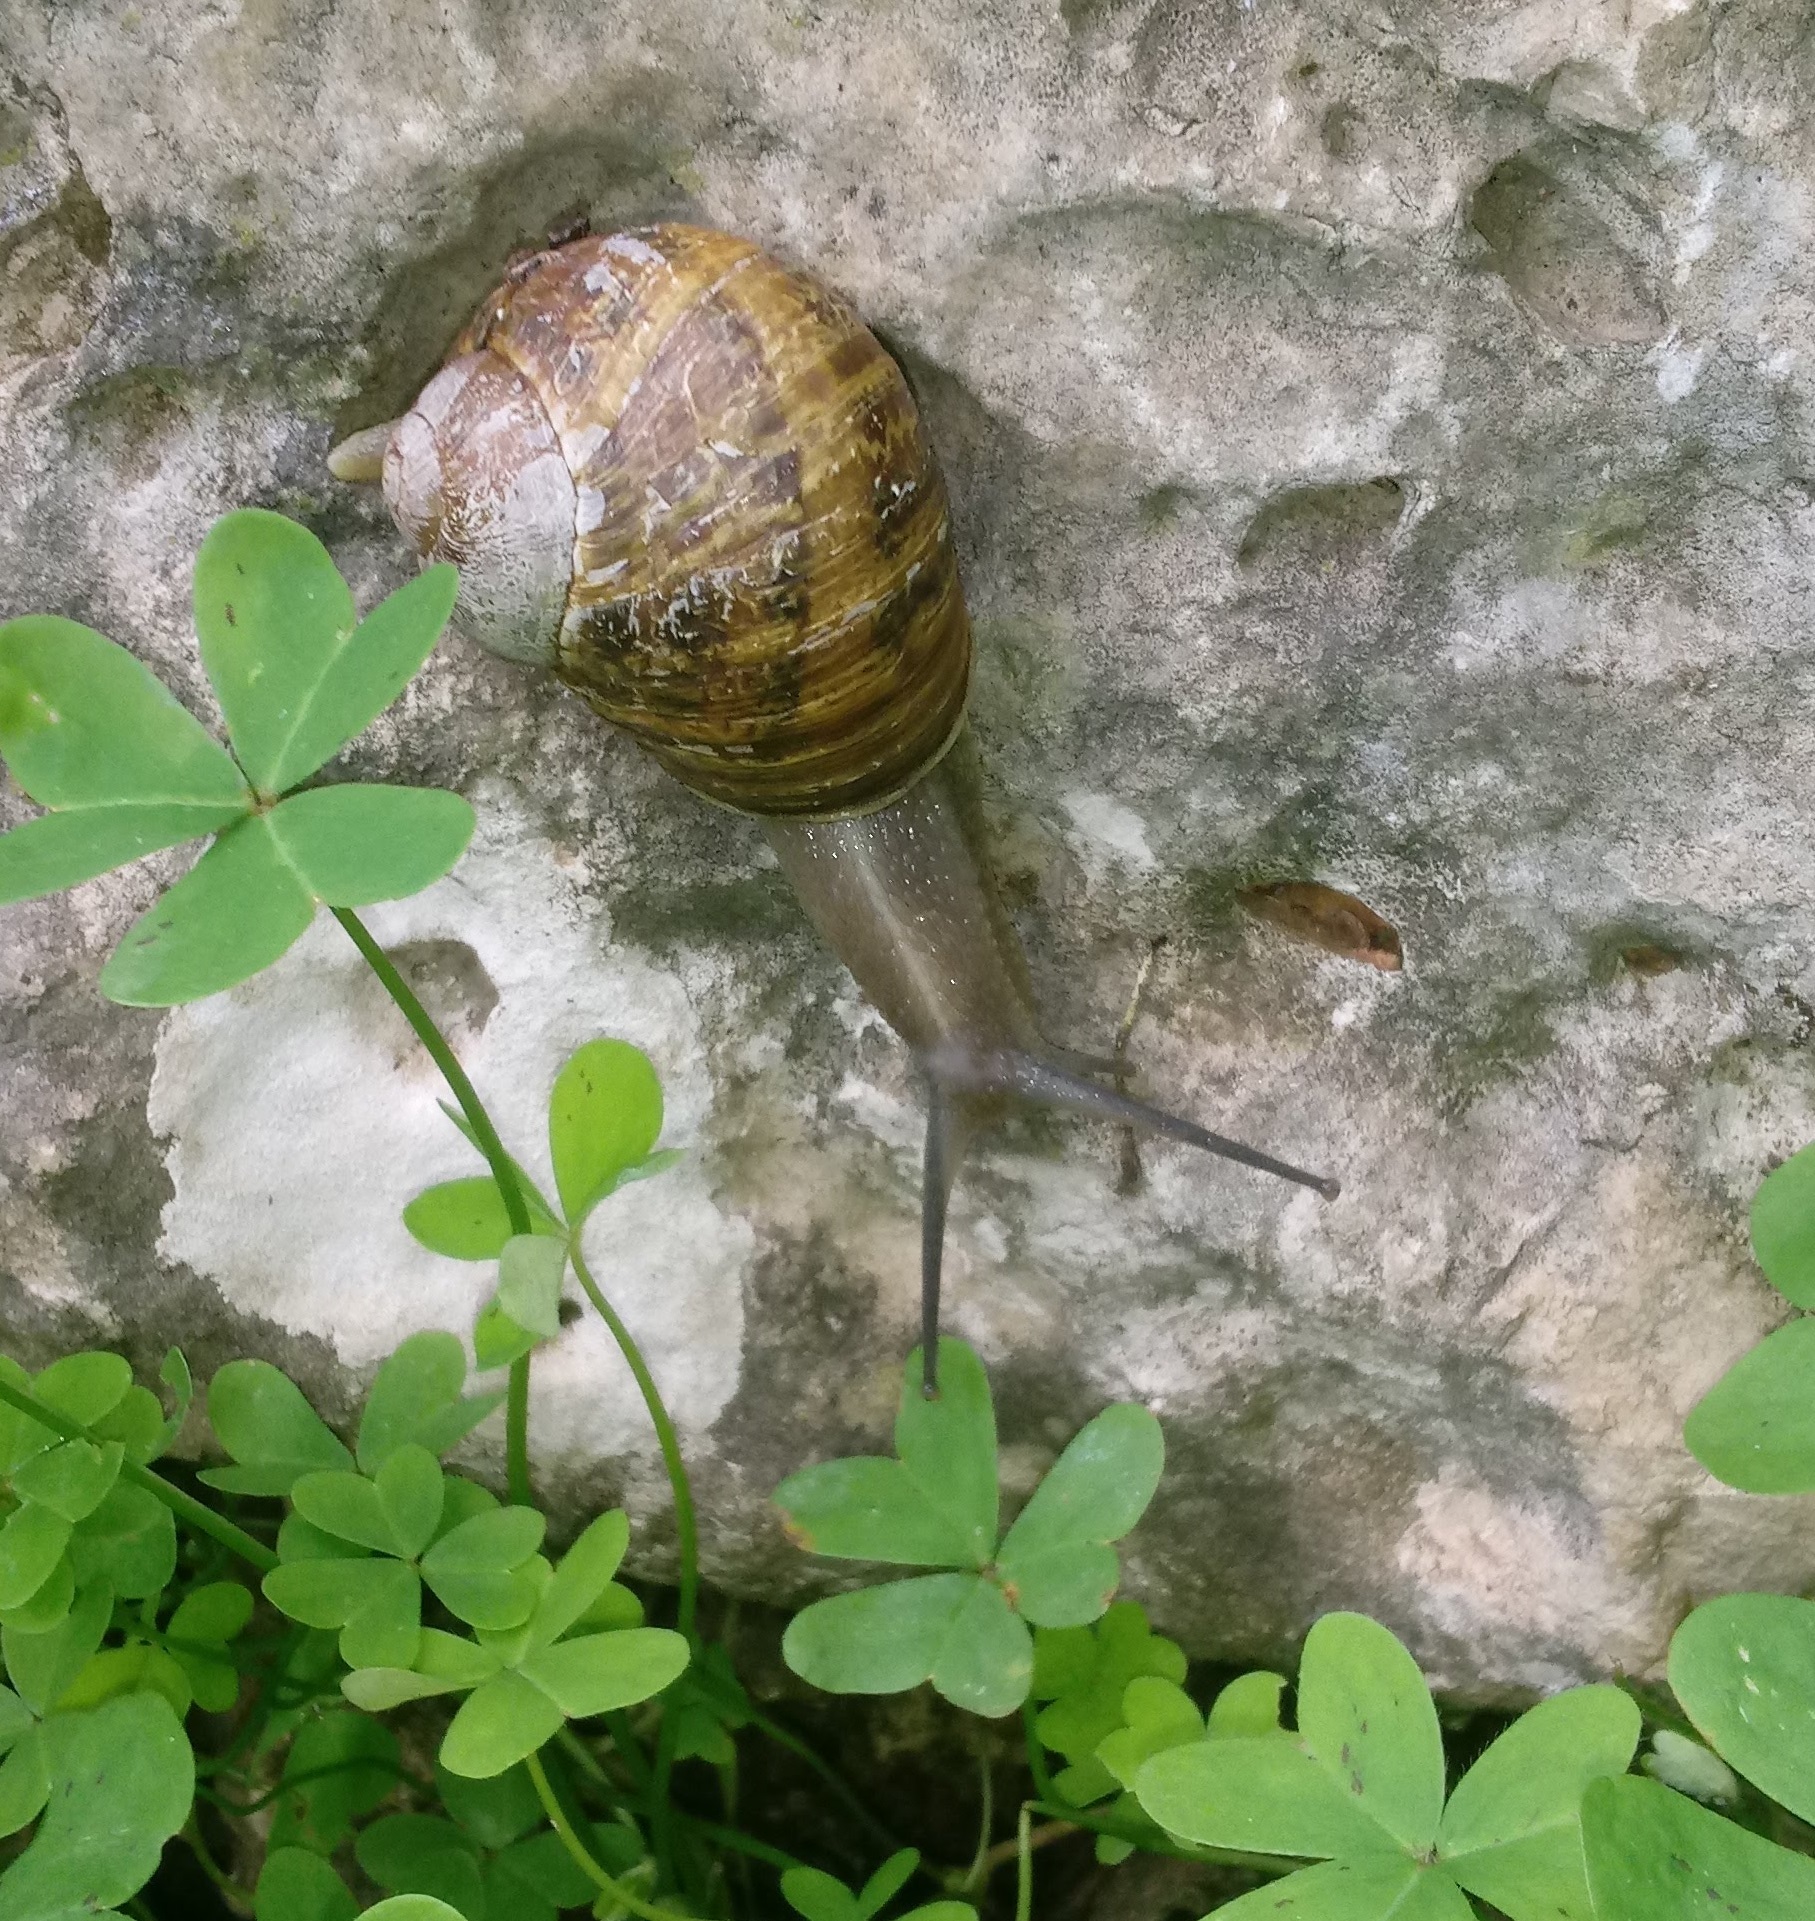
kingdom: Animalia
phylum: Mollusca
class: Gastropoda
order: Stylommatophora
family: Helicidae
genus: Cornu
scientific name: Cornu aspersum
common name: Brown garden snail
